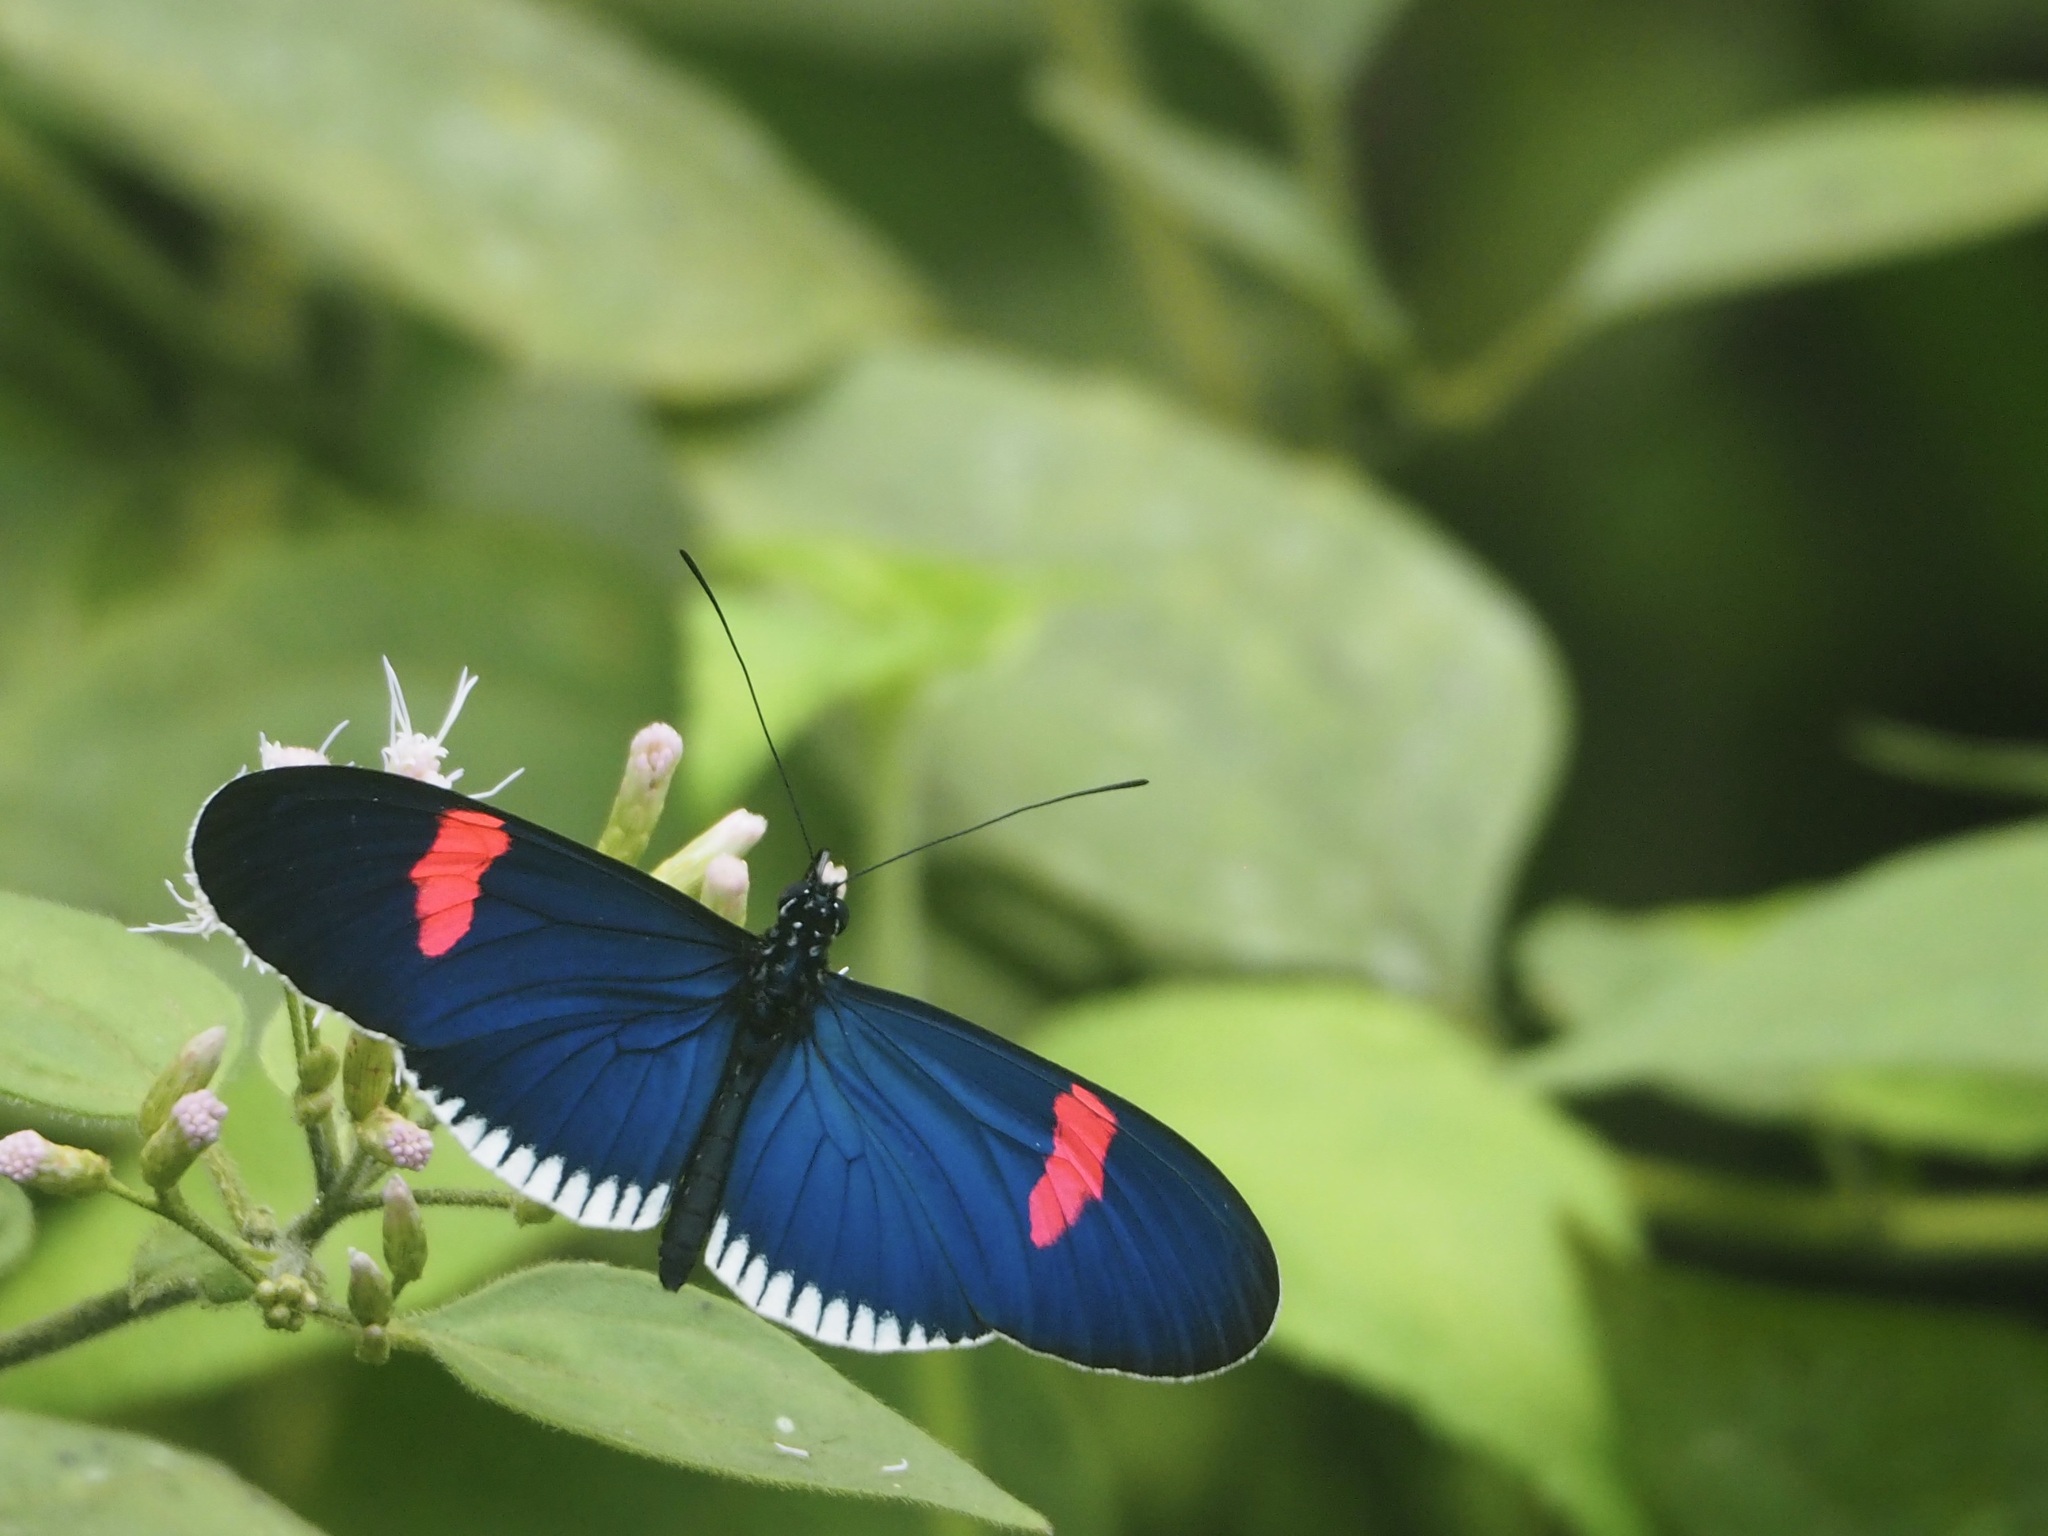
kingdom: Animalia
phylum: Arthropoda
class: Insecta
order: Lepidoptera
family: Nymphalidae
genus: Heliconius
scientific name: Heliconius erato
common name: Common patch longwing
